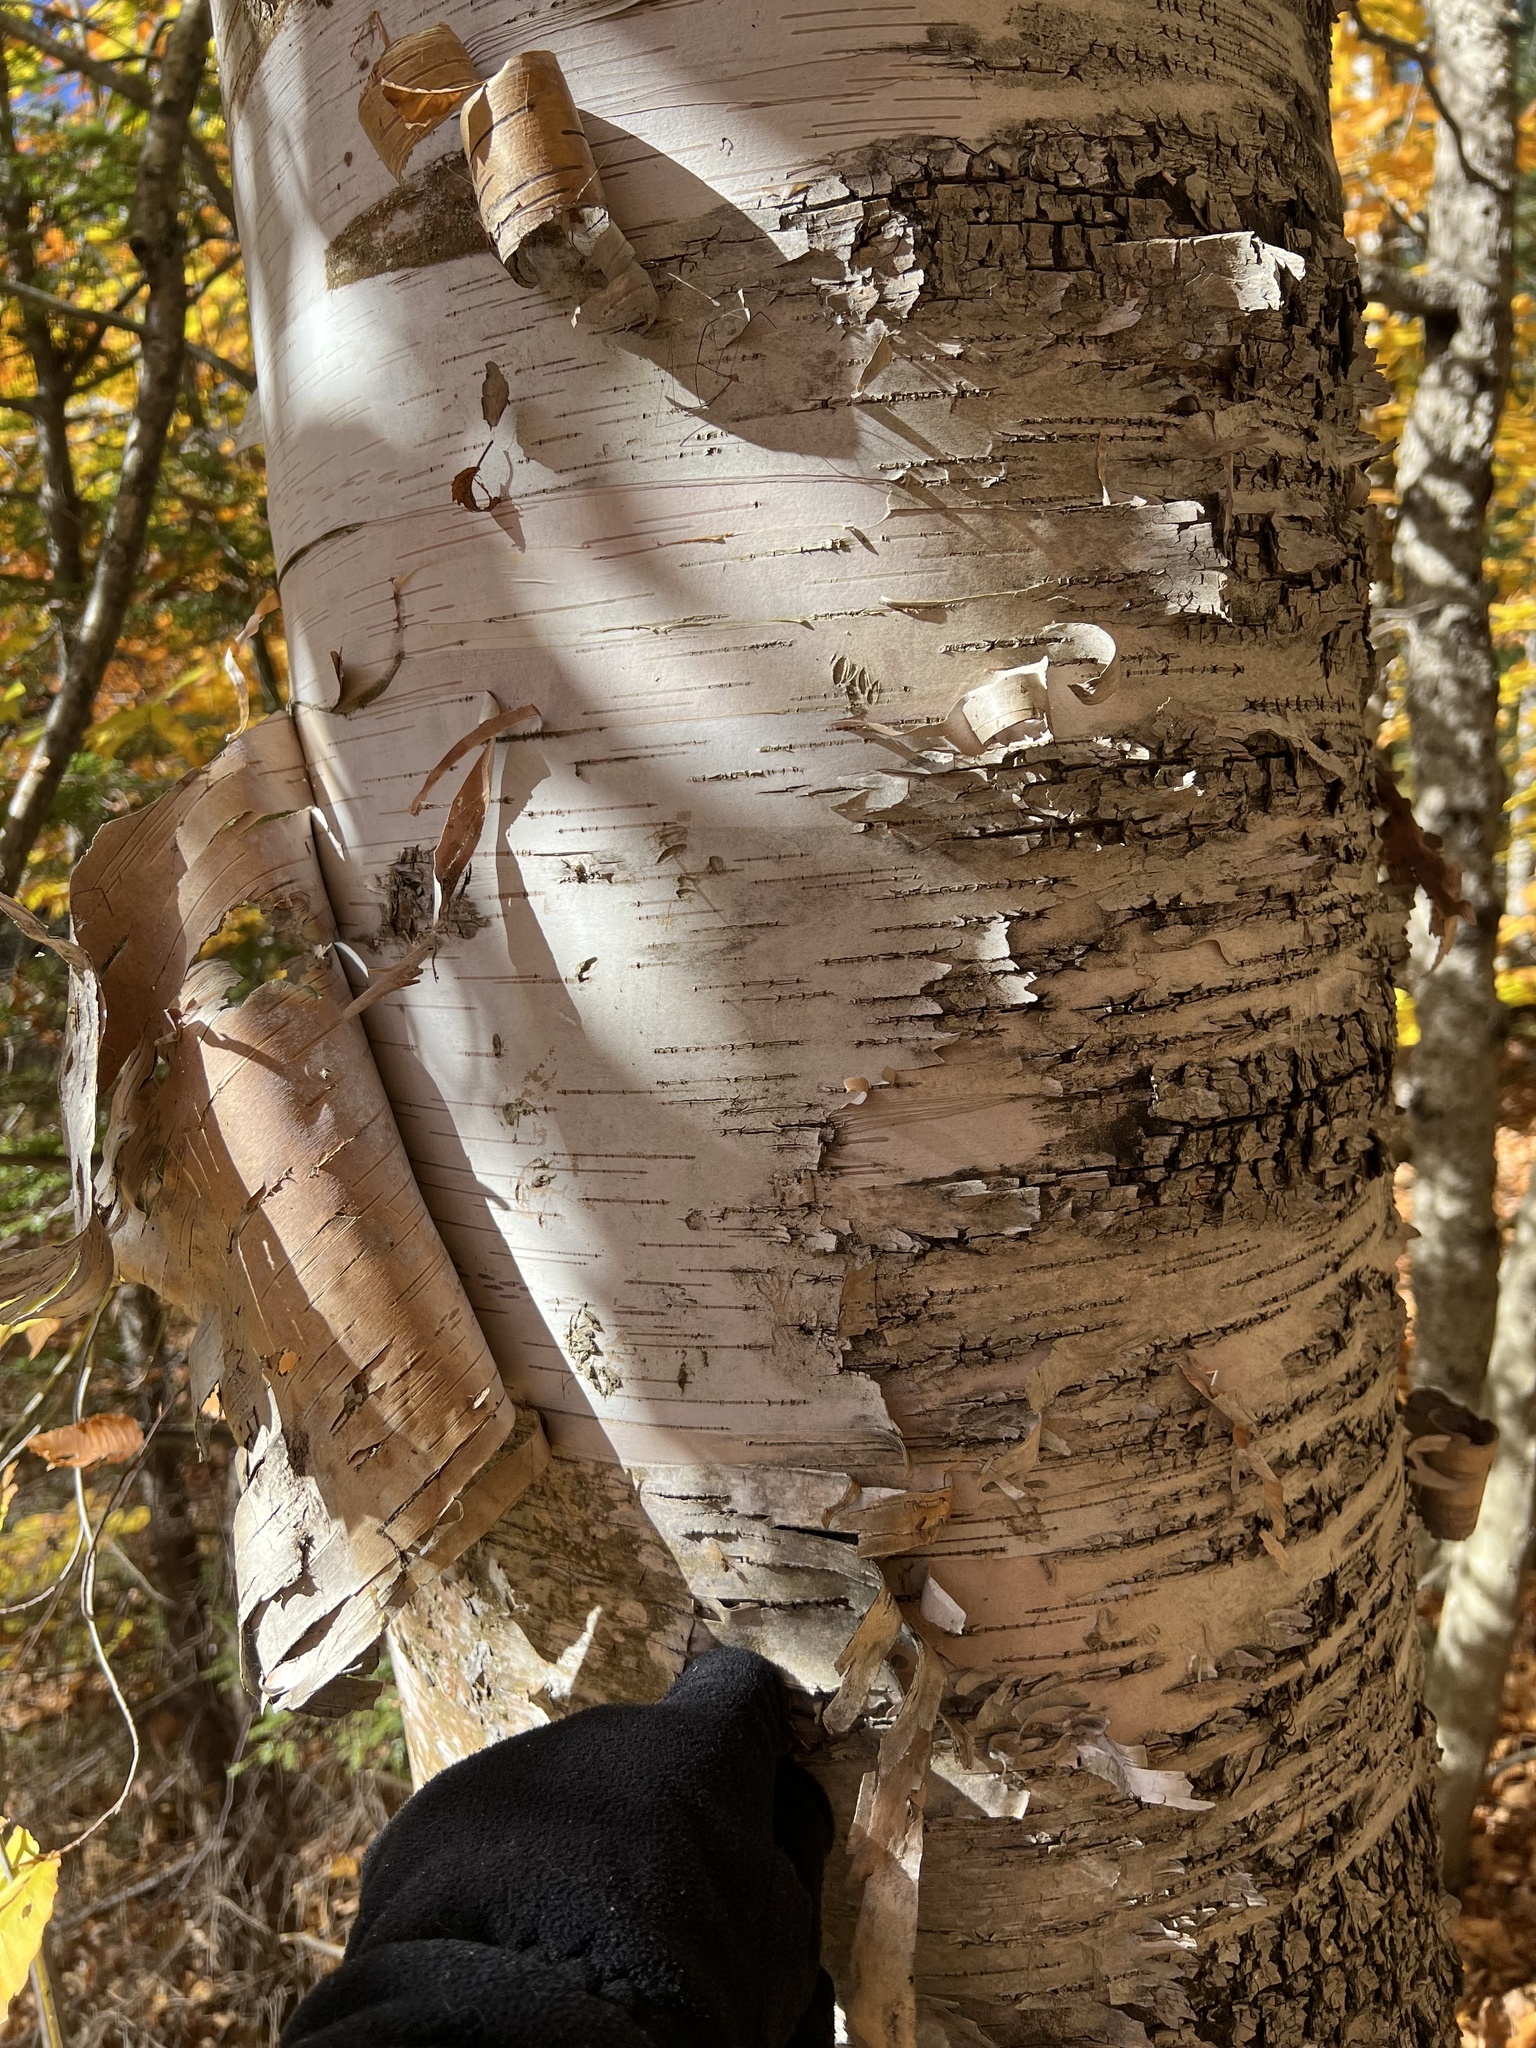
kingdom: Plantae
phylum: Tracheophyta
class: Magnoliopsida
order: Fagales
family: Betulaceae
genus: Betula
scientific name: Betula papyrifera
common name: Paper birch
